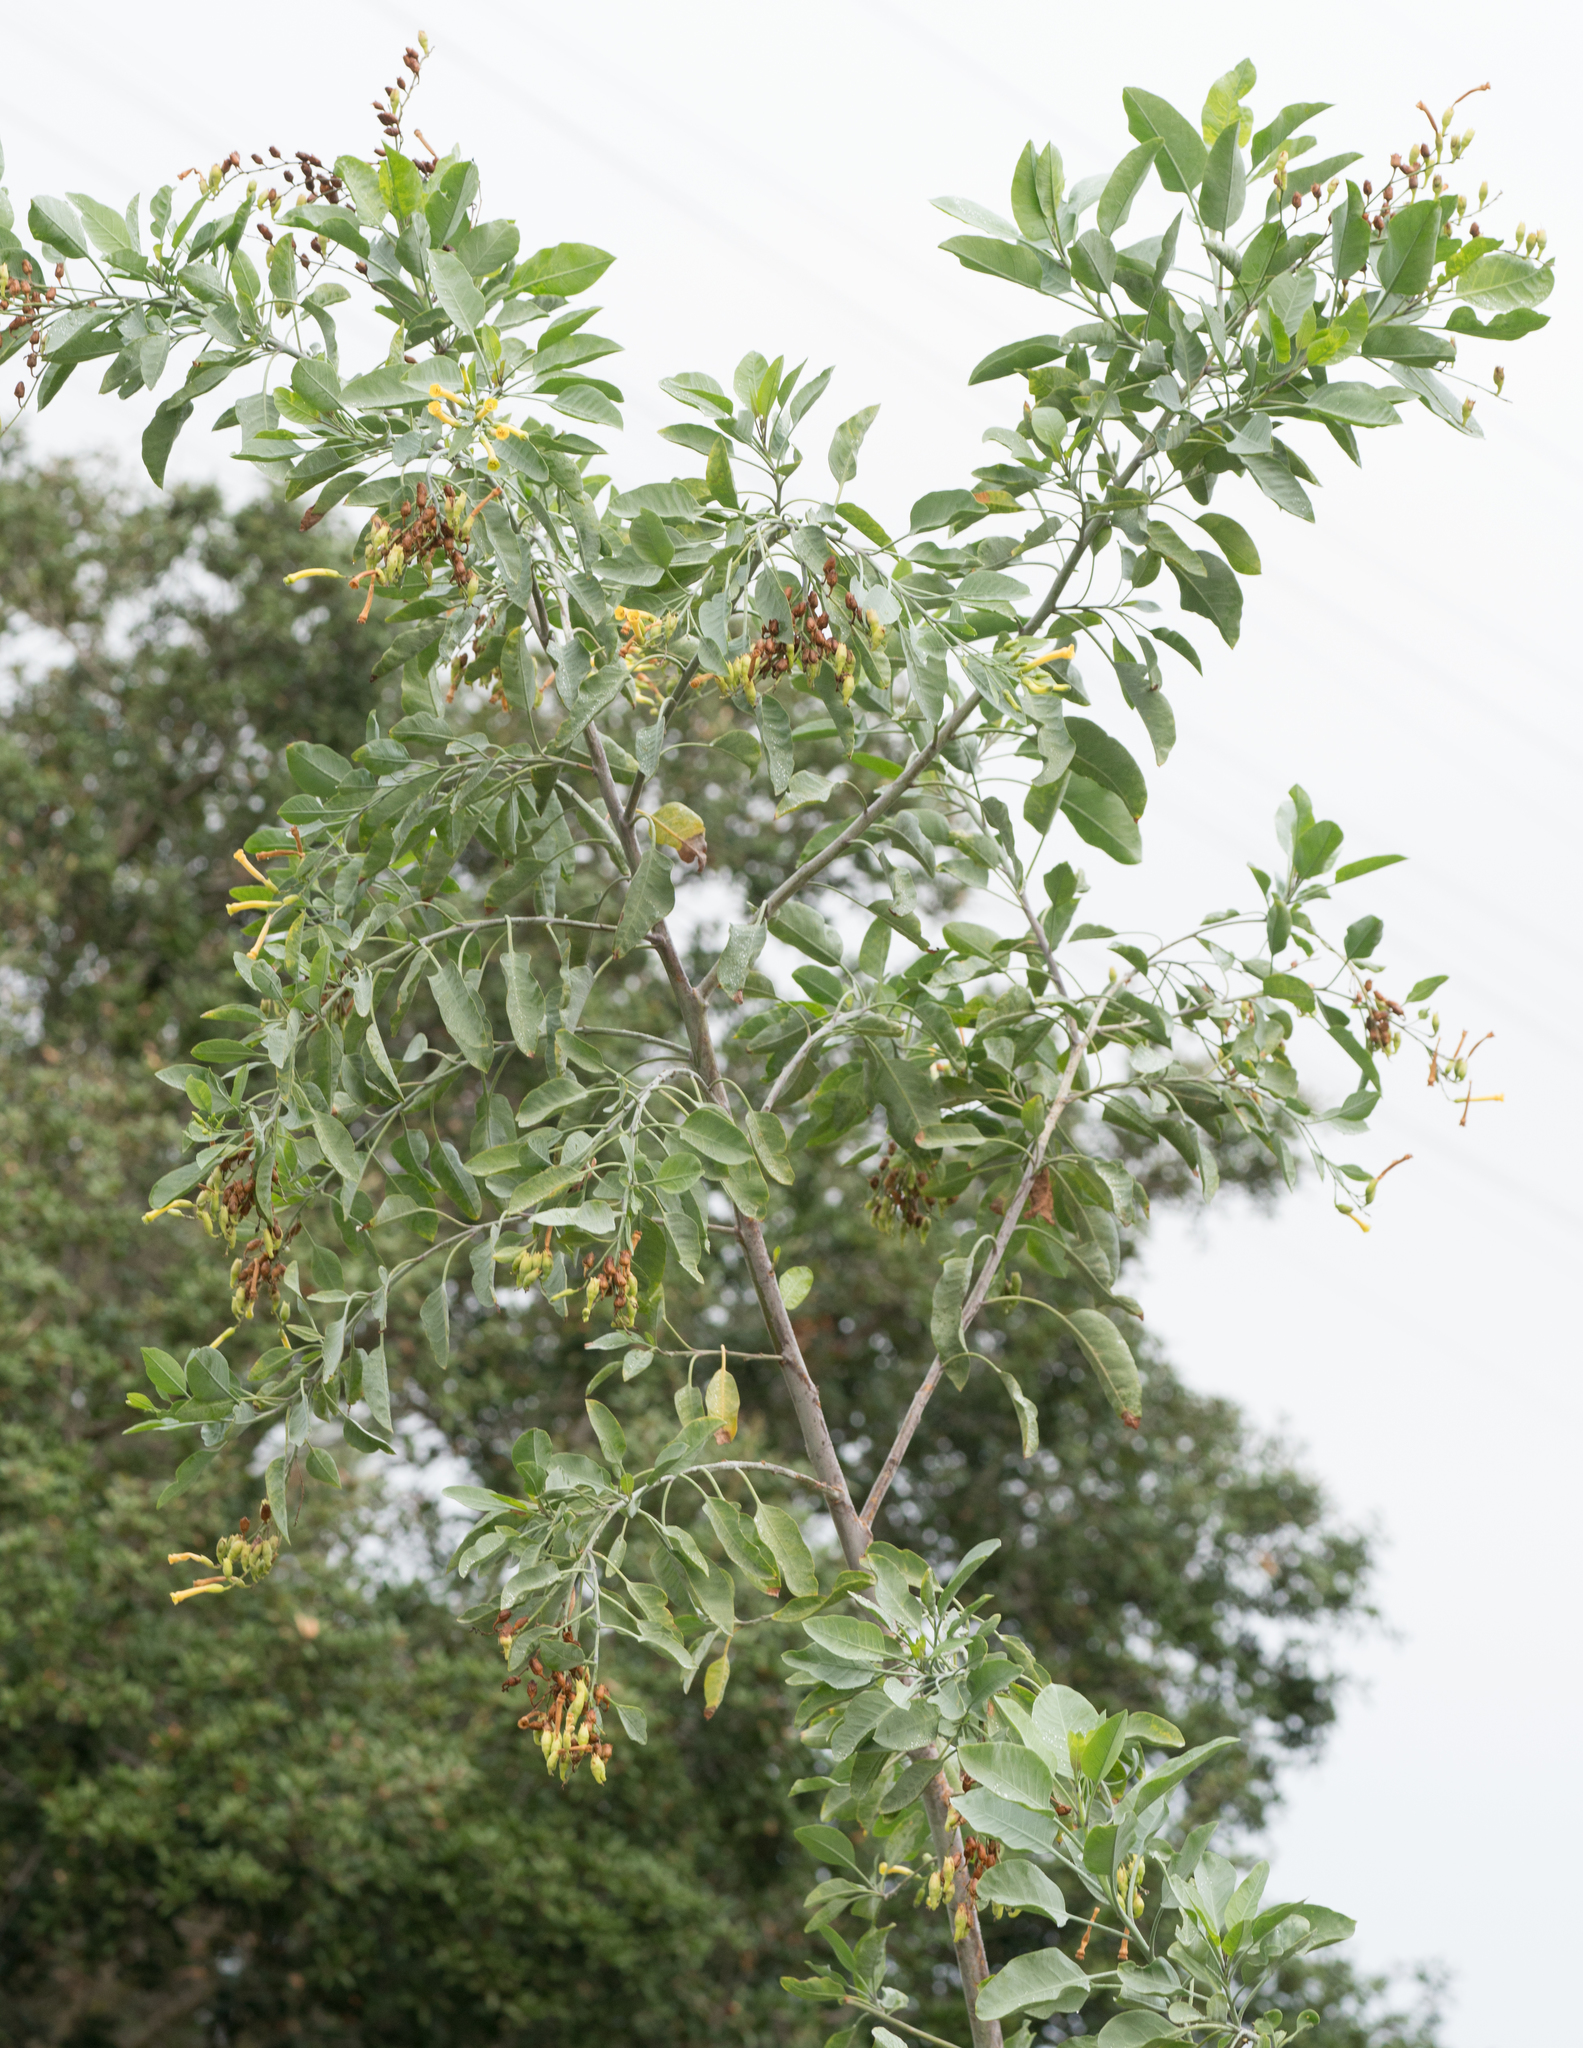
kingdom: Plantae
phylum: Tracheophyta
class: Magnoliopsida
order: Solanales
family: Solanaceae
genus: Nicotiana
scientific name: Nicotiana glauca
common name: Tree tobacco
